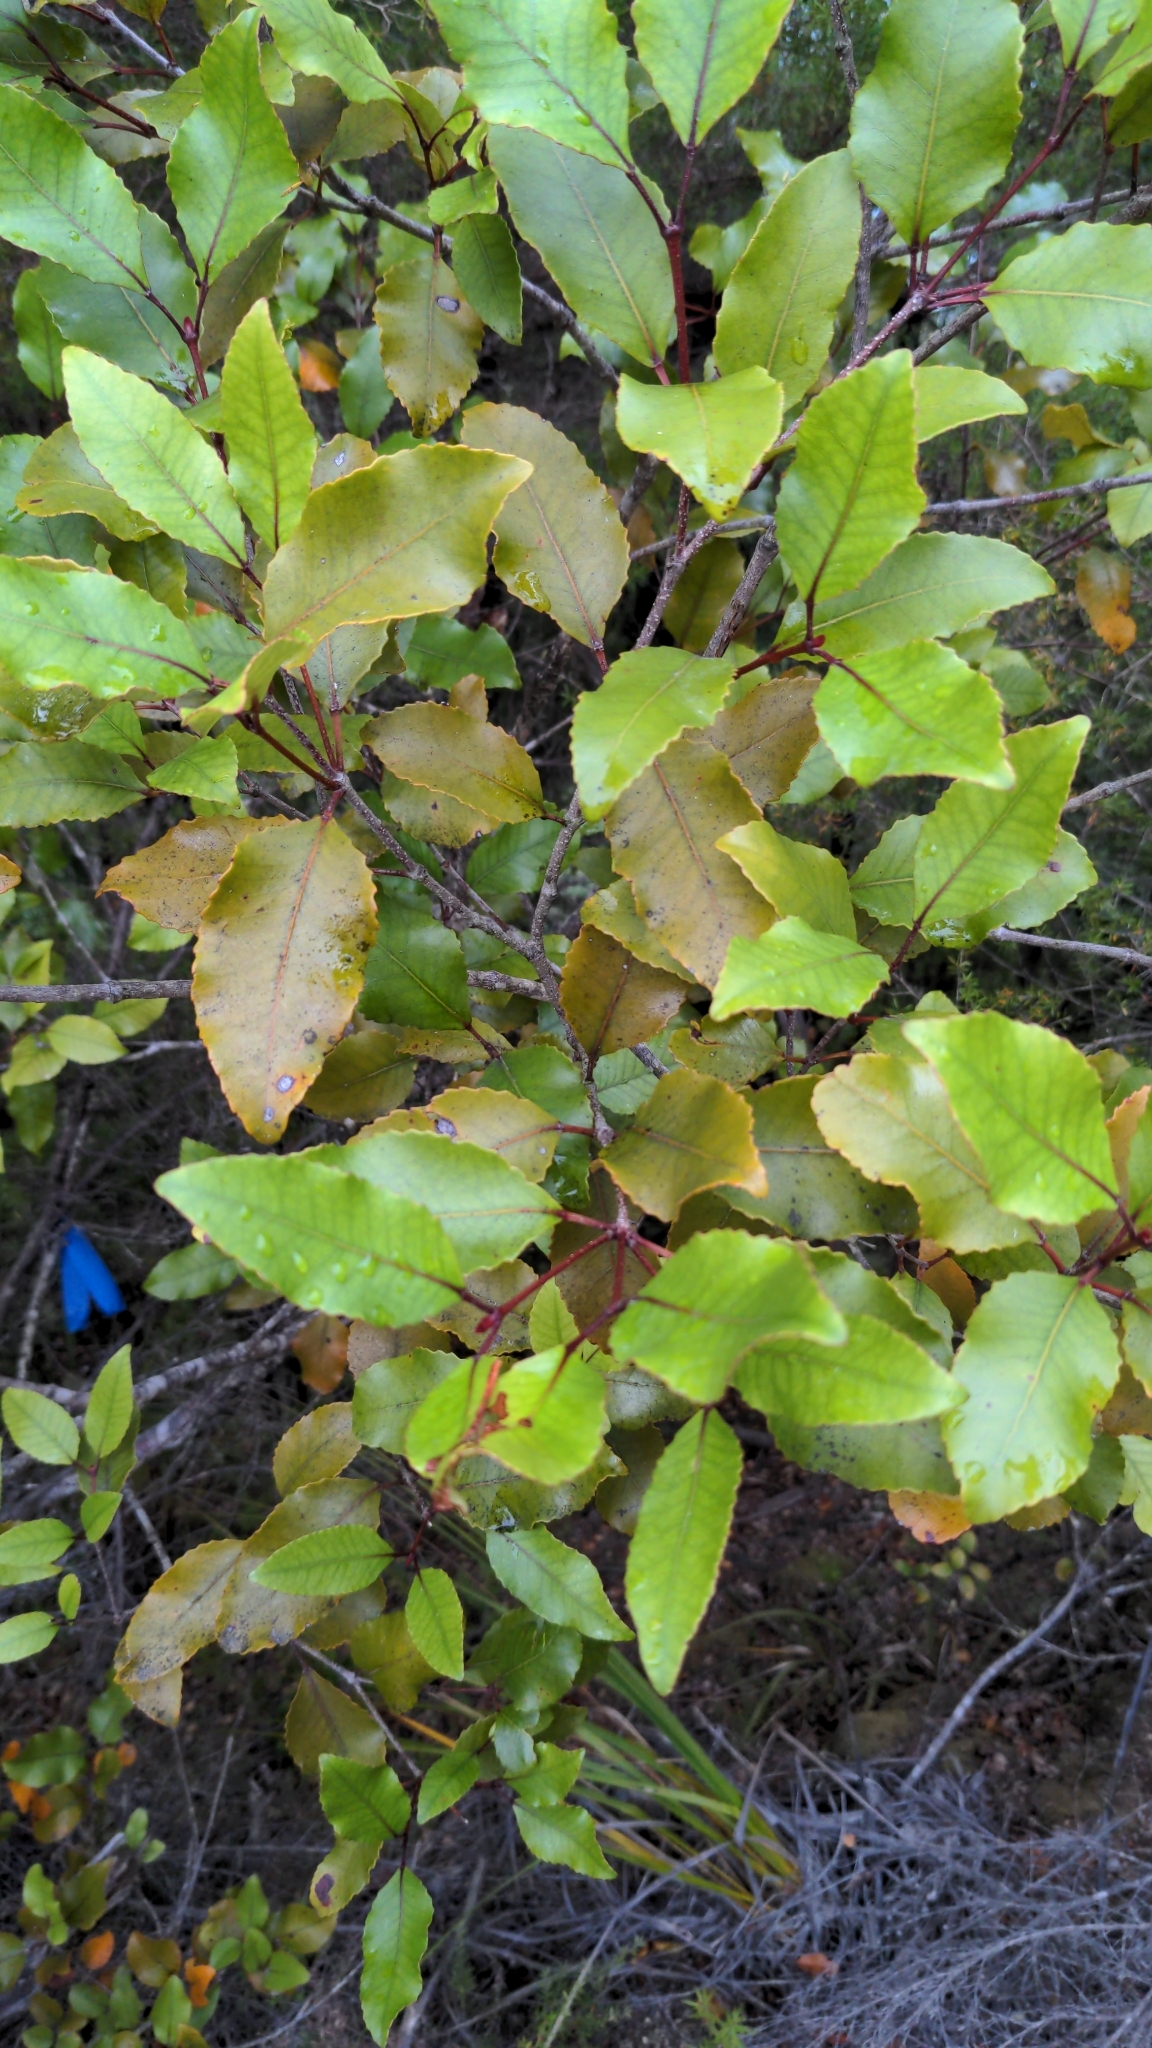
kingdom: Plantae
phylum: Tracheophyta
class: Magnoliopsida
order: Oxalidales
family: Cunoniaceae
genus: Pterophylla
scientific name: Pterophylla racemosa
